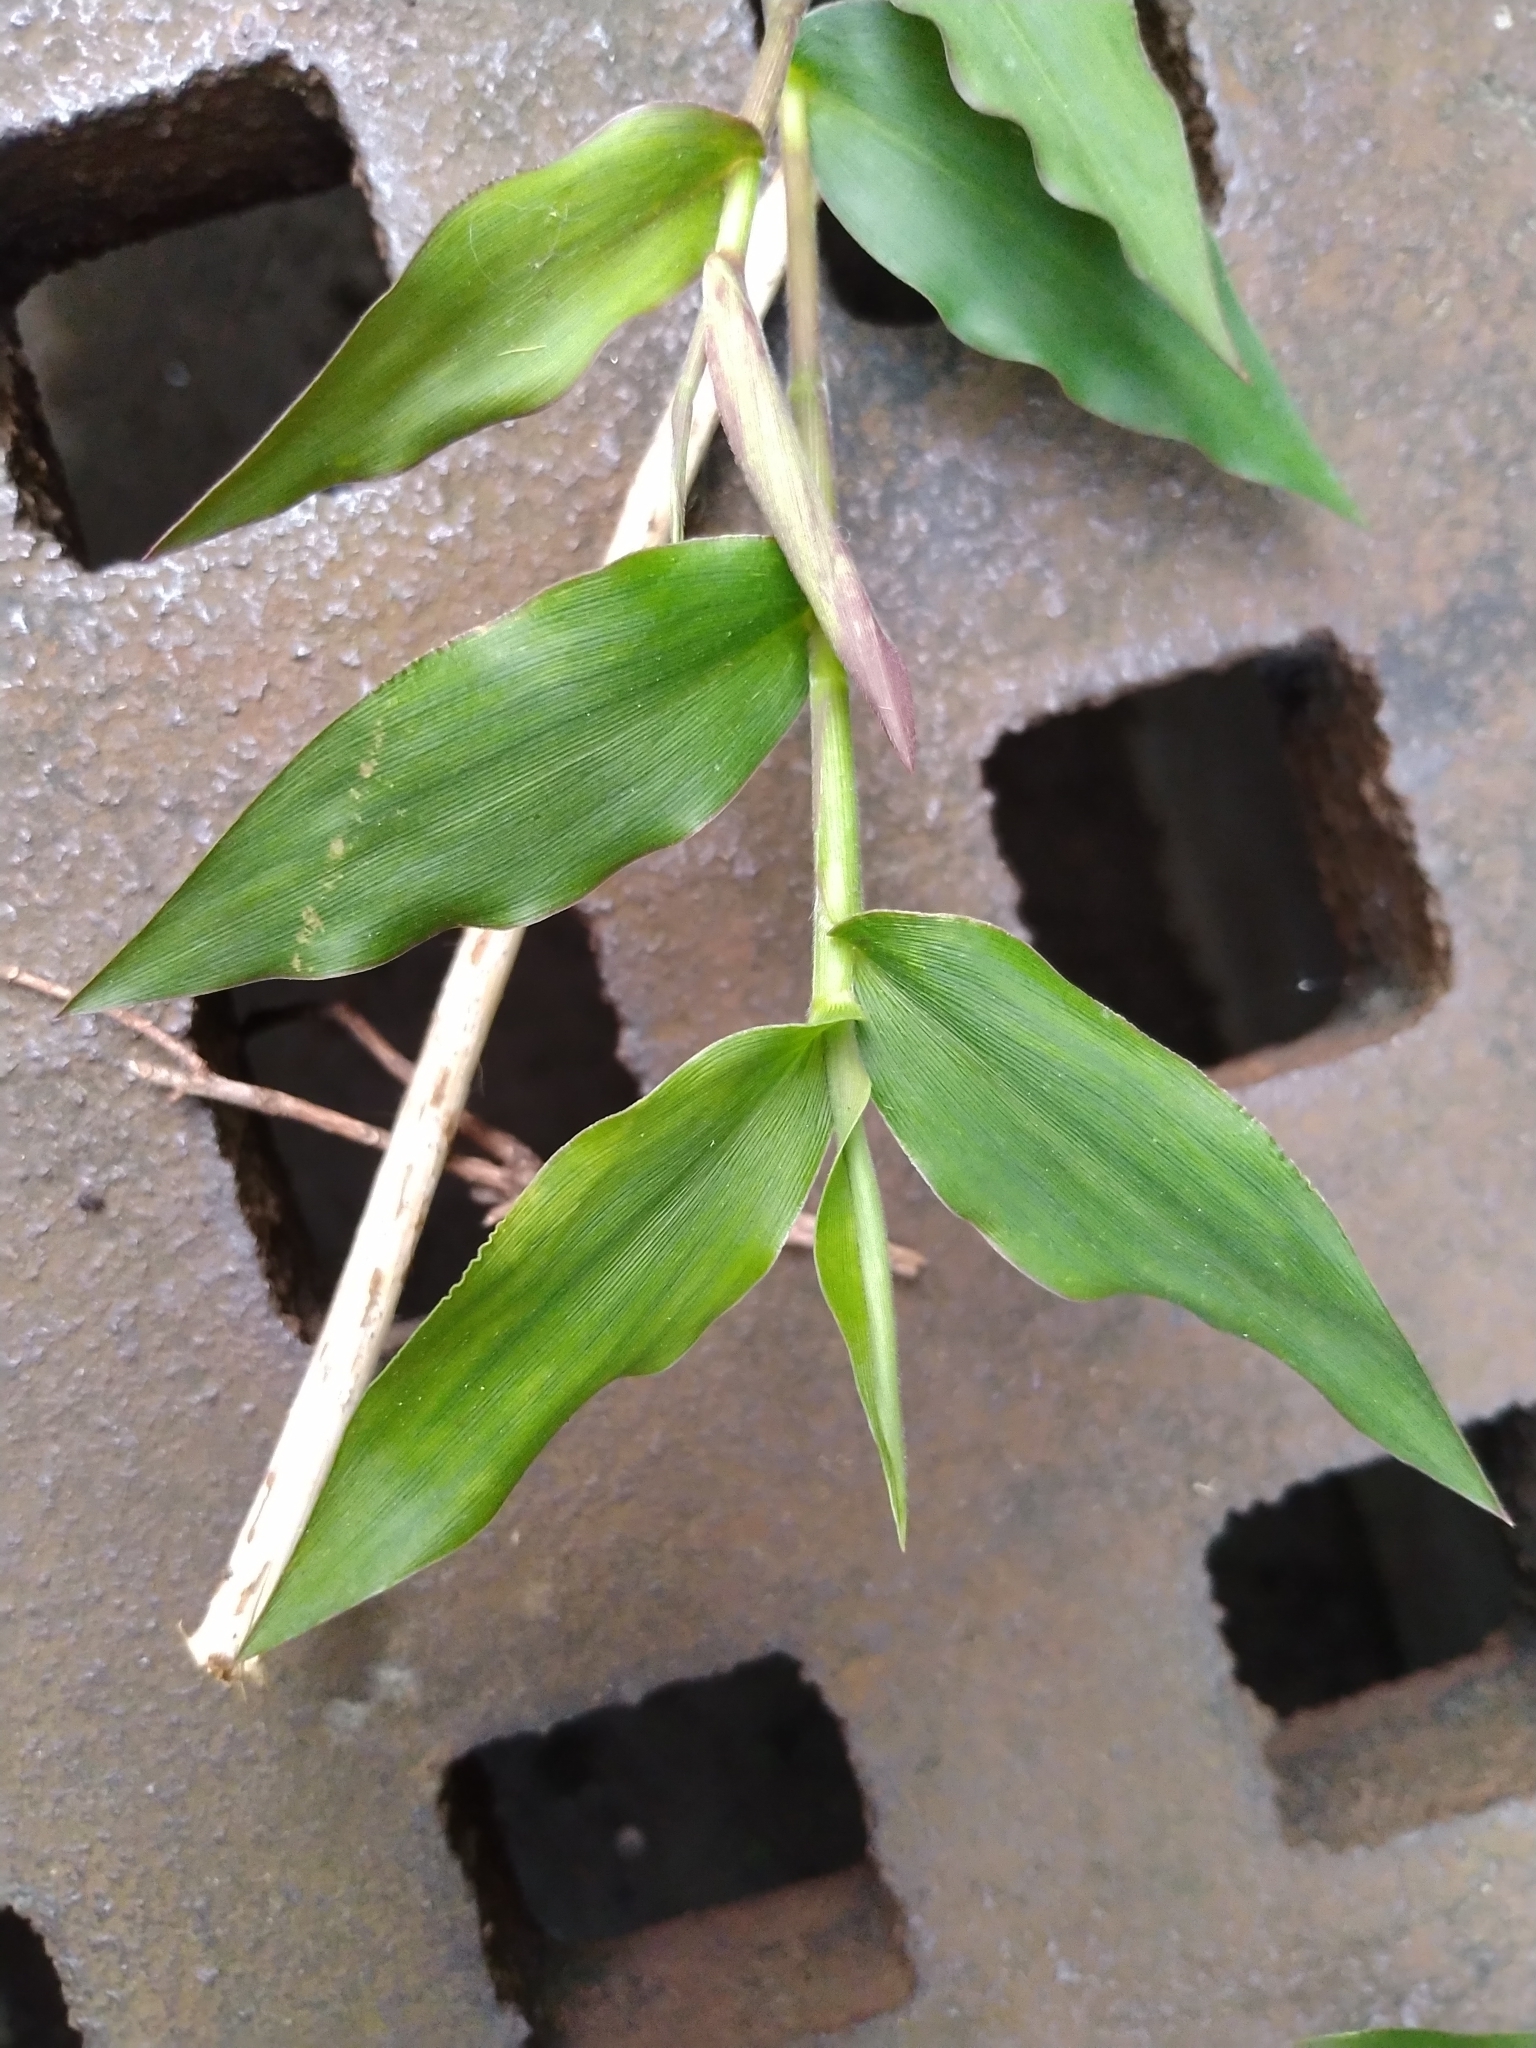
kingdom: Plantae
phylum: Tracheophyta
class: Liliopsida
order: Poales
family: Poaceae
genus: Oplismenus
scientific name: Oplismenus compositus
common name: Running mountain grass
